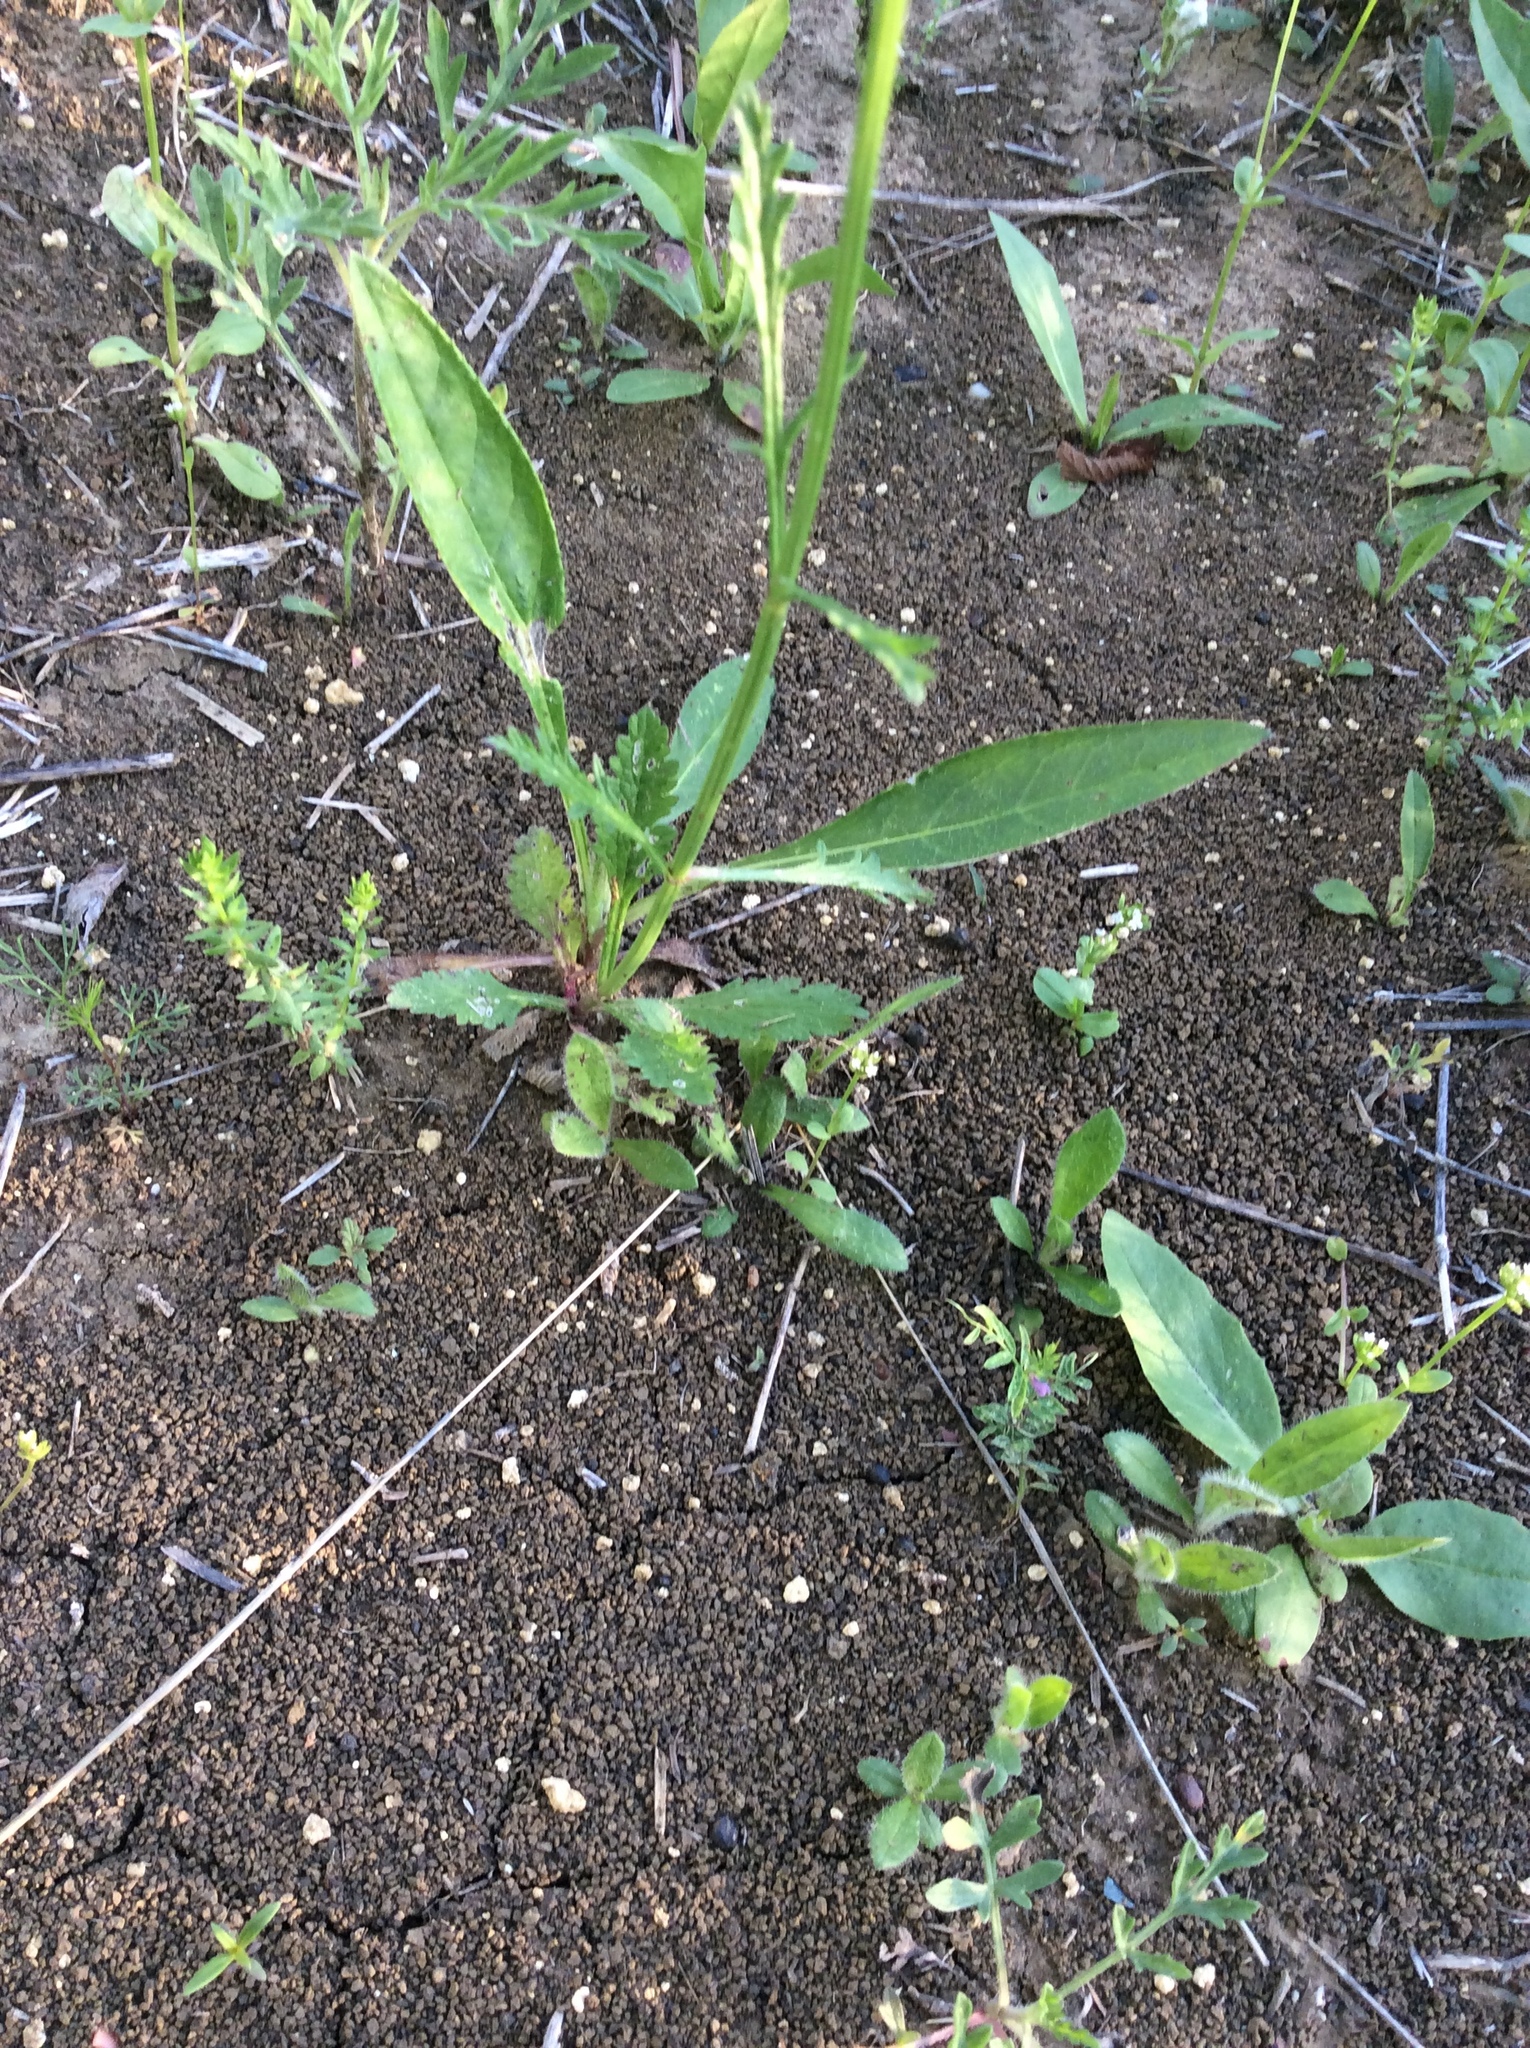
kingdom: Plantae
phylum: Tracheophyta
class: Magnoliopsida
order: Lamiales
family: Verbenaceae
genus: Verbena
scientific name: Verbena halei
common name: Texas vervain
